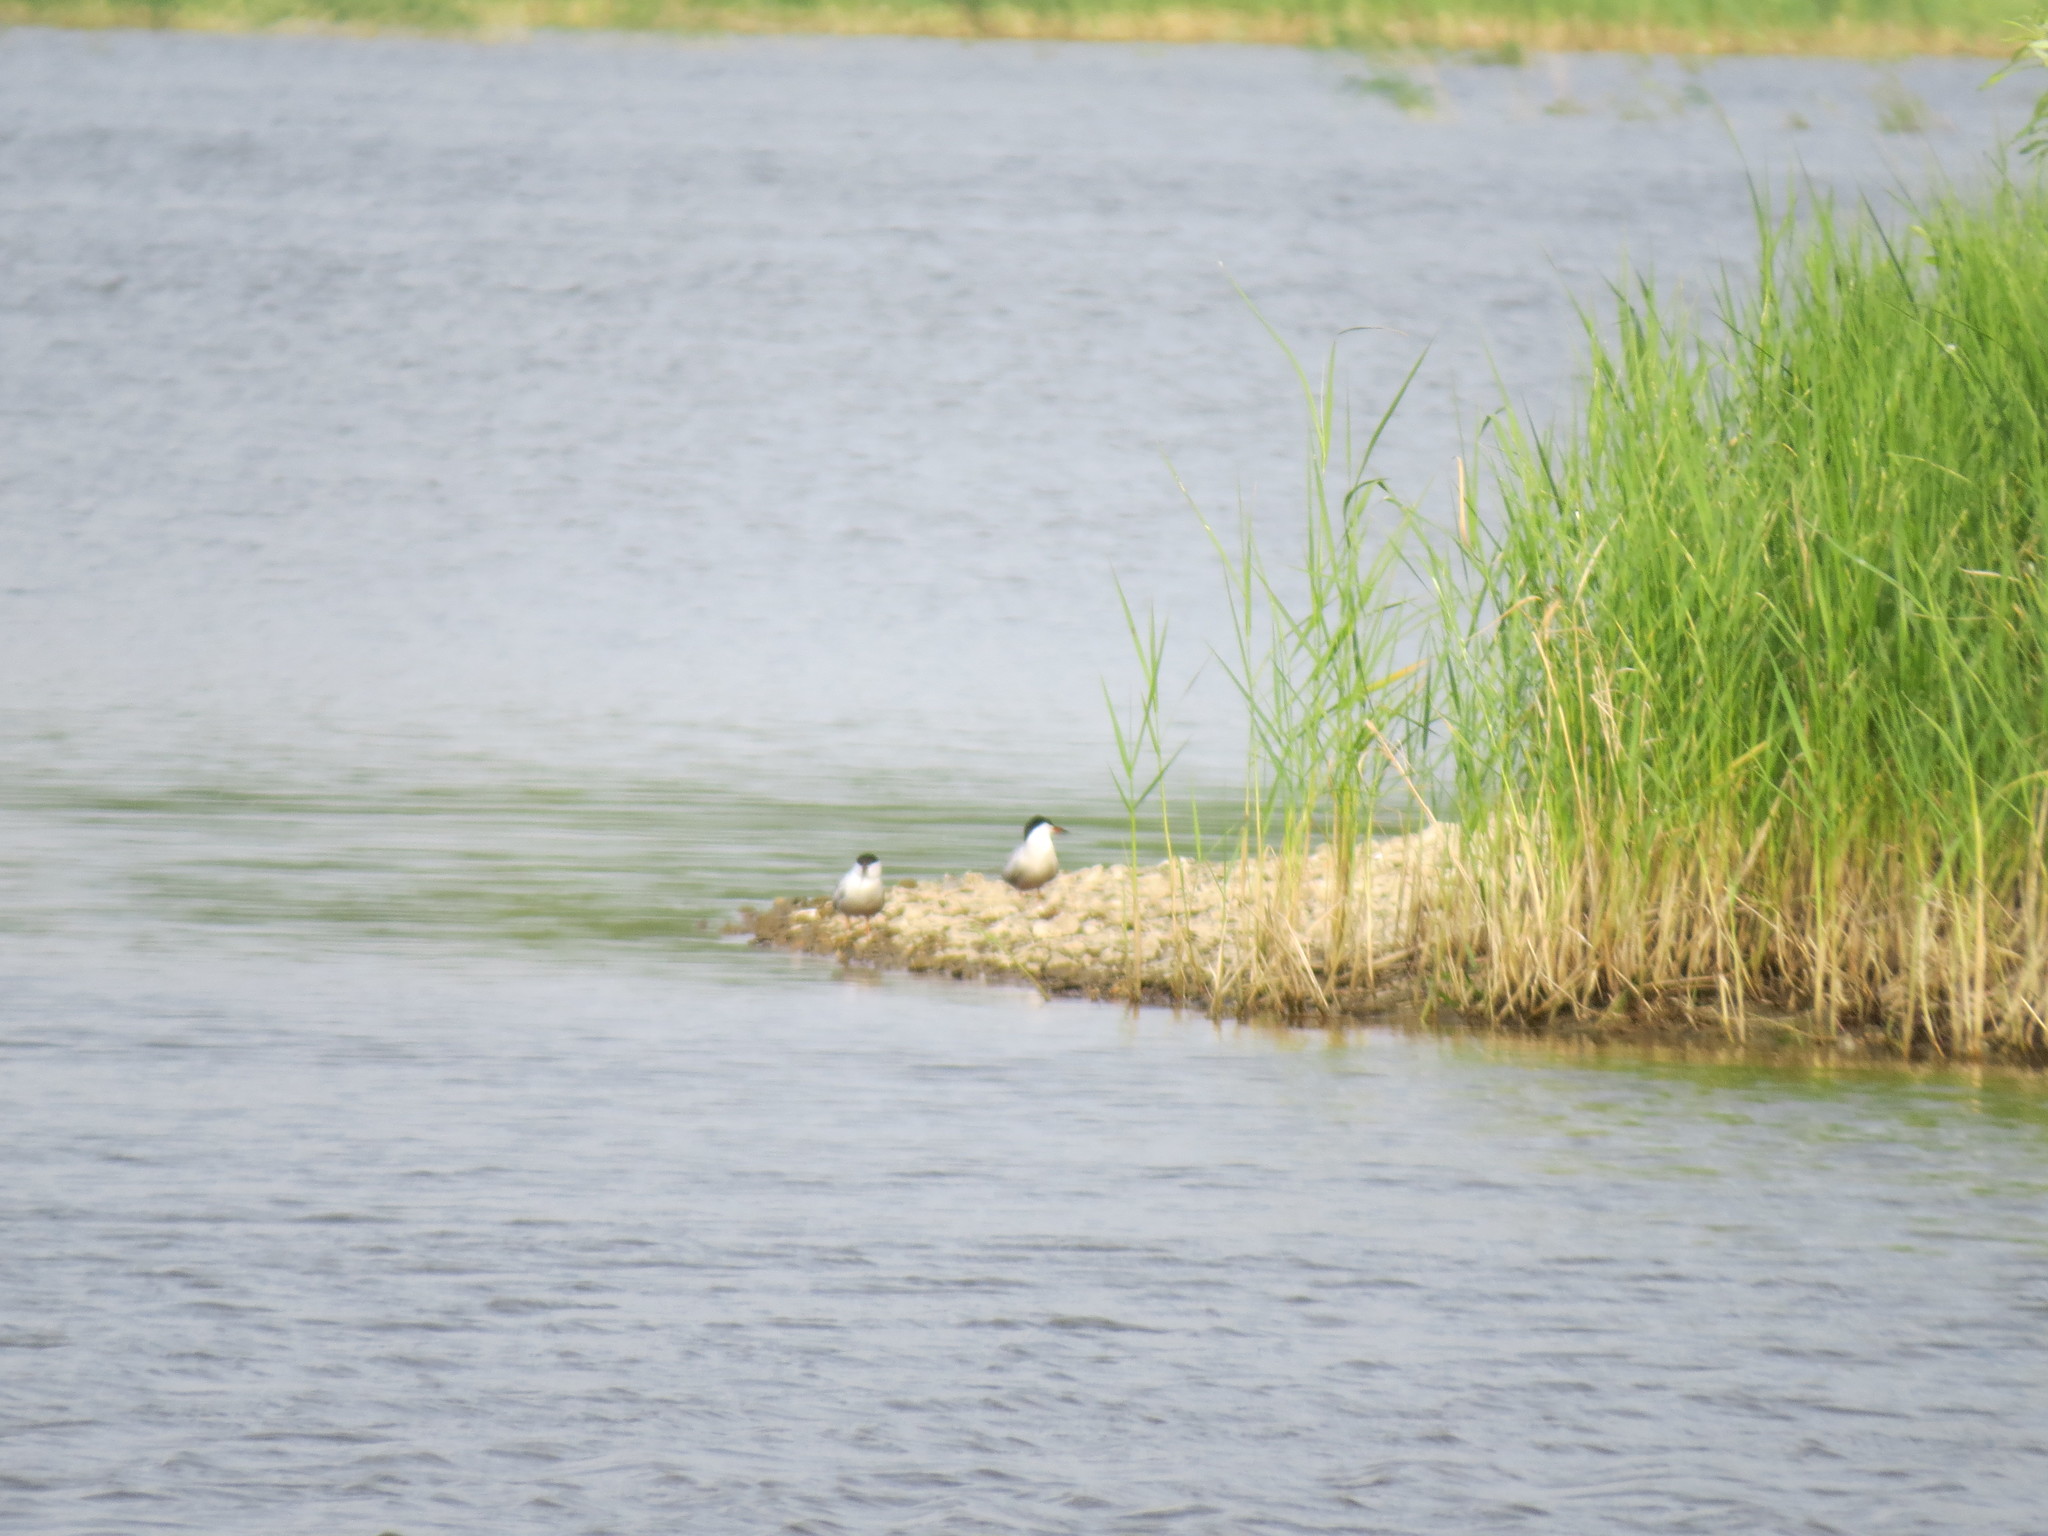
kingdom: Animalia
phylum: Chordata
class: Aves
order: Charadriiformes
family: Laridae
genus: Sterna
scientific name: Sterna hirundo
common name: Common tern
